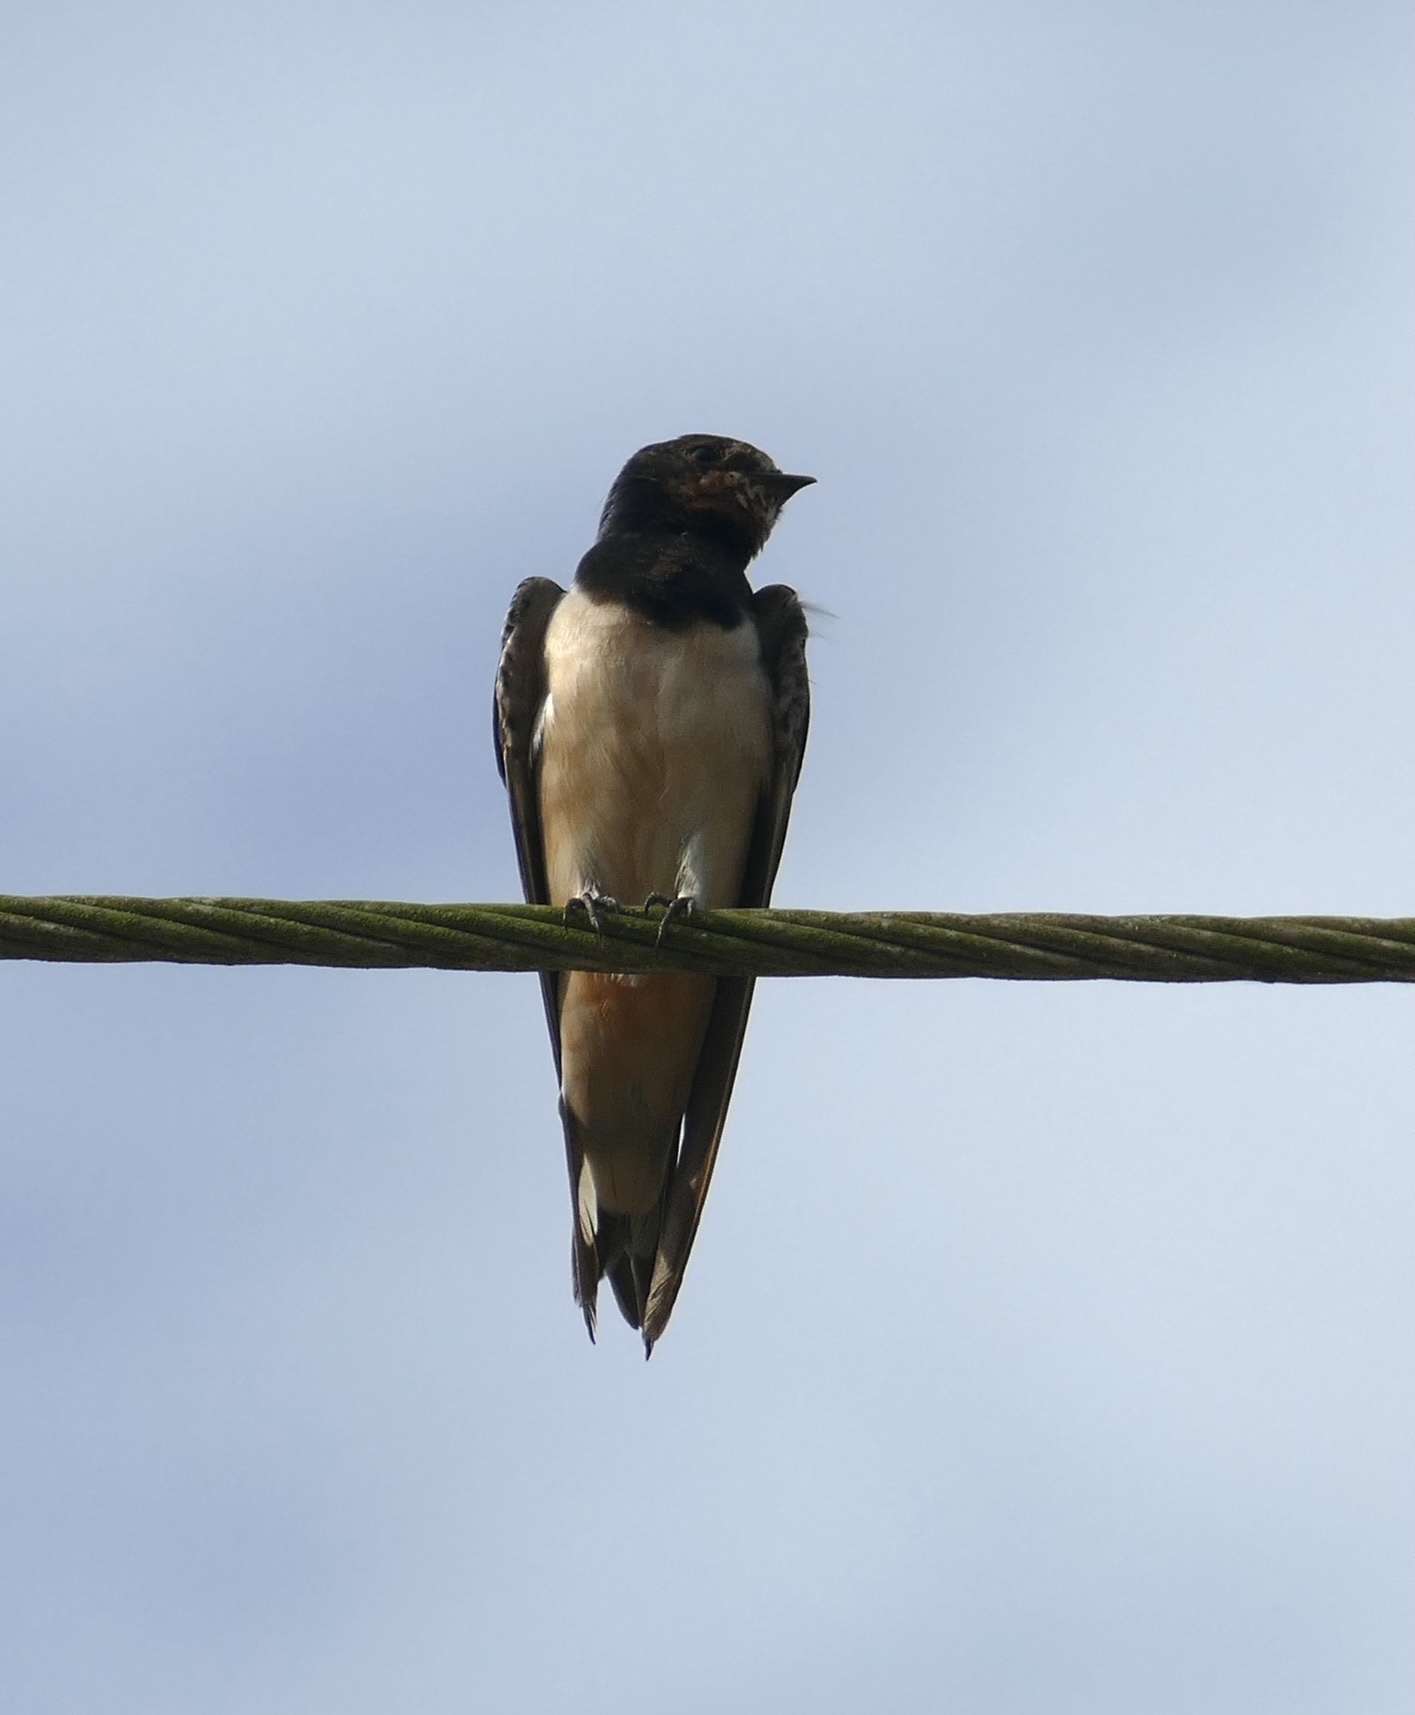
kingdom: Animalia
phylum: Chordata
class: Aves
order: Passeriformes
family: Hirundinidae
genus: Hirundo
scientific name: Hirundo rustica
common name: Barn swallow
